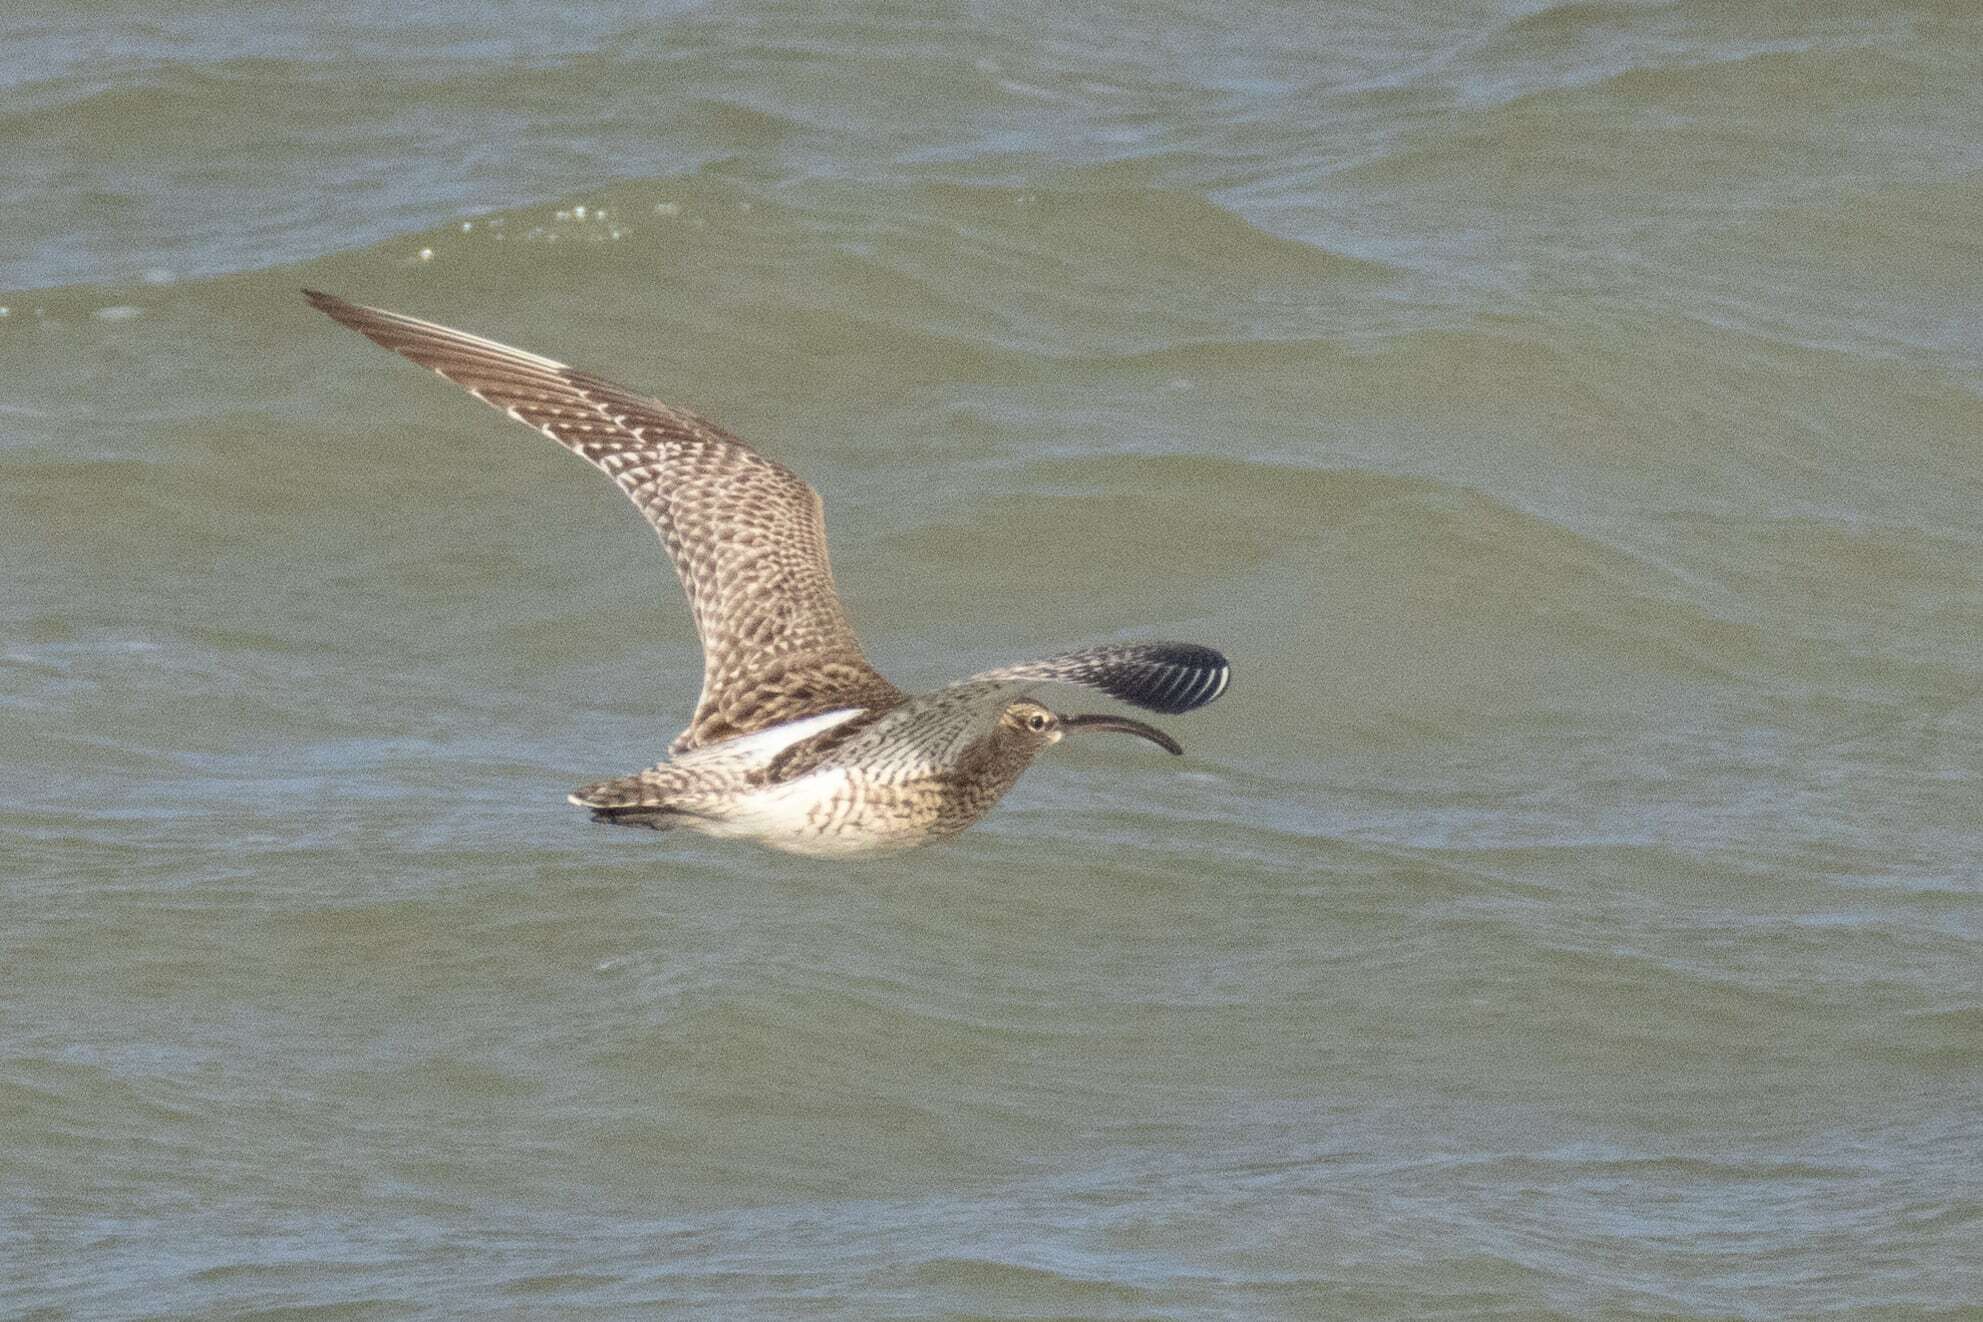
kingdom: Animalia
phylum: Chordata
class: Aves
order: Charadriiformes
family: Scolopacidae
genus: Numenius
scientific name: Numenius phaeopus
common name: Whimbrel
